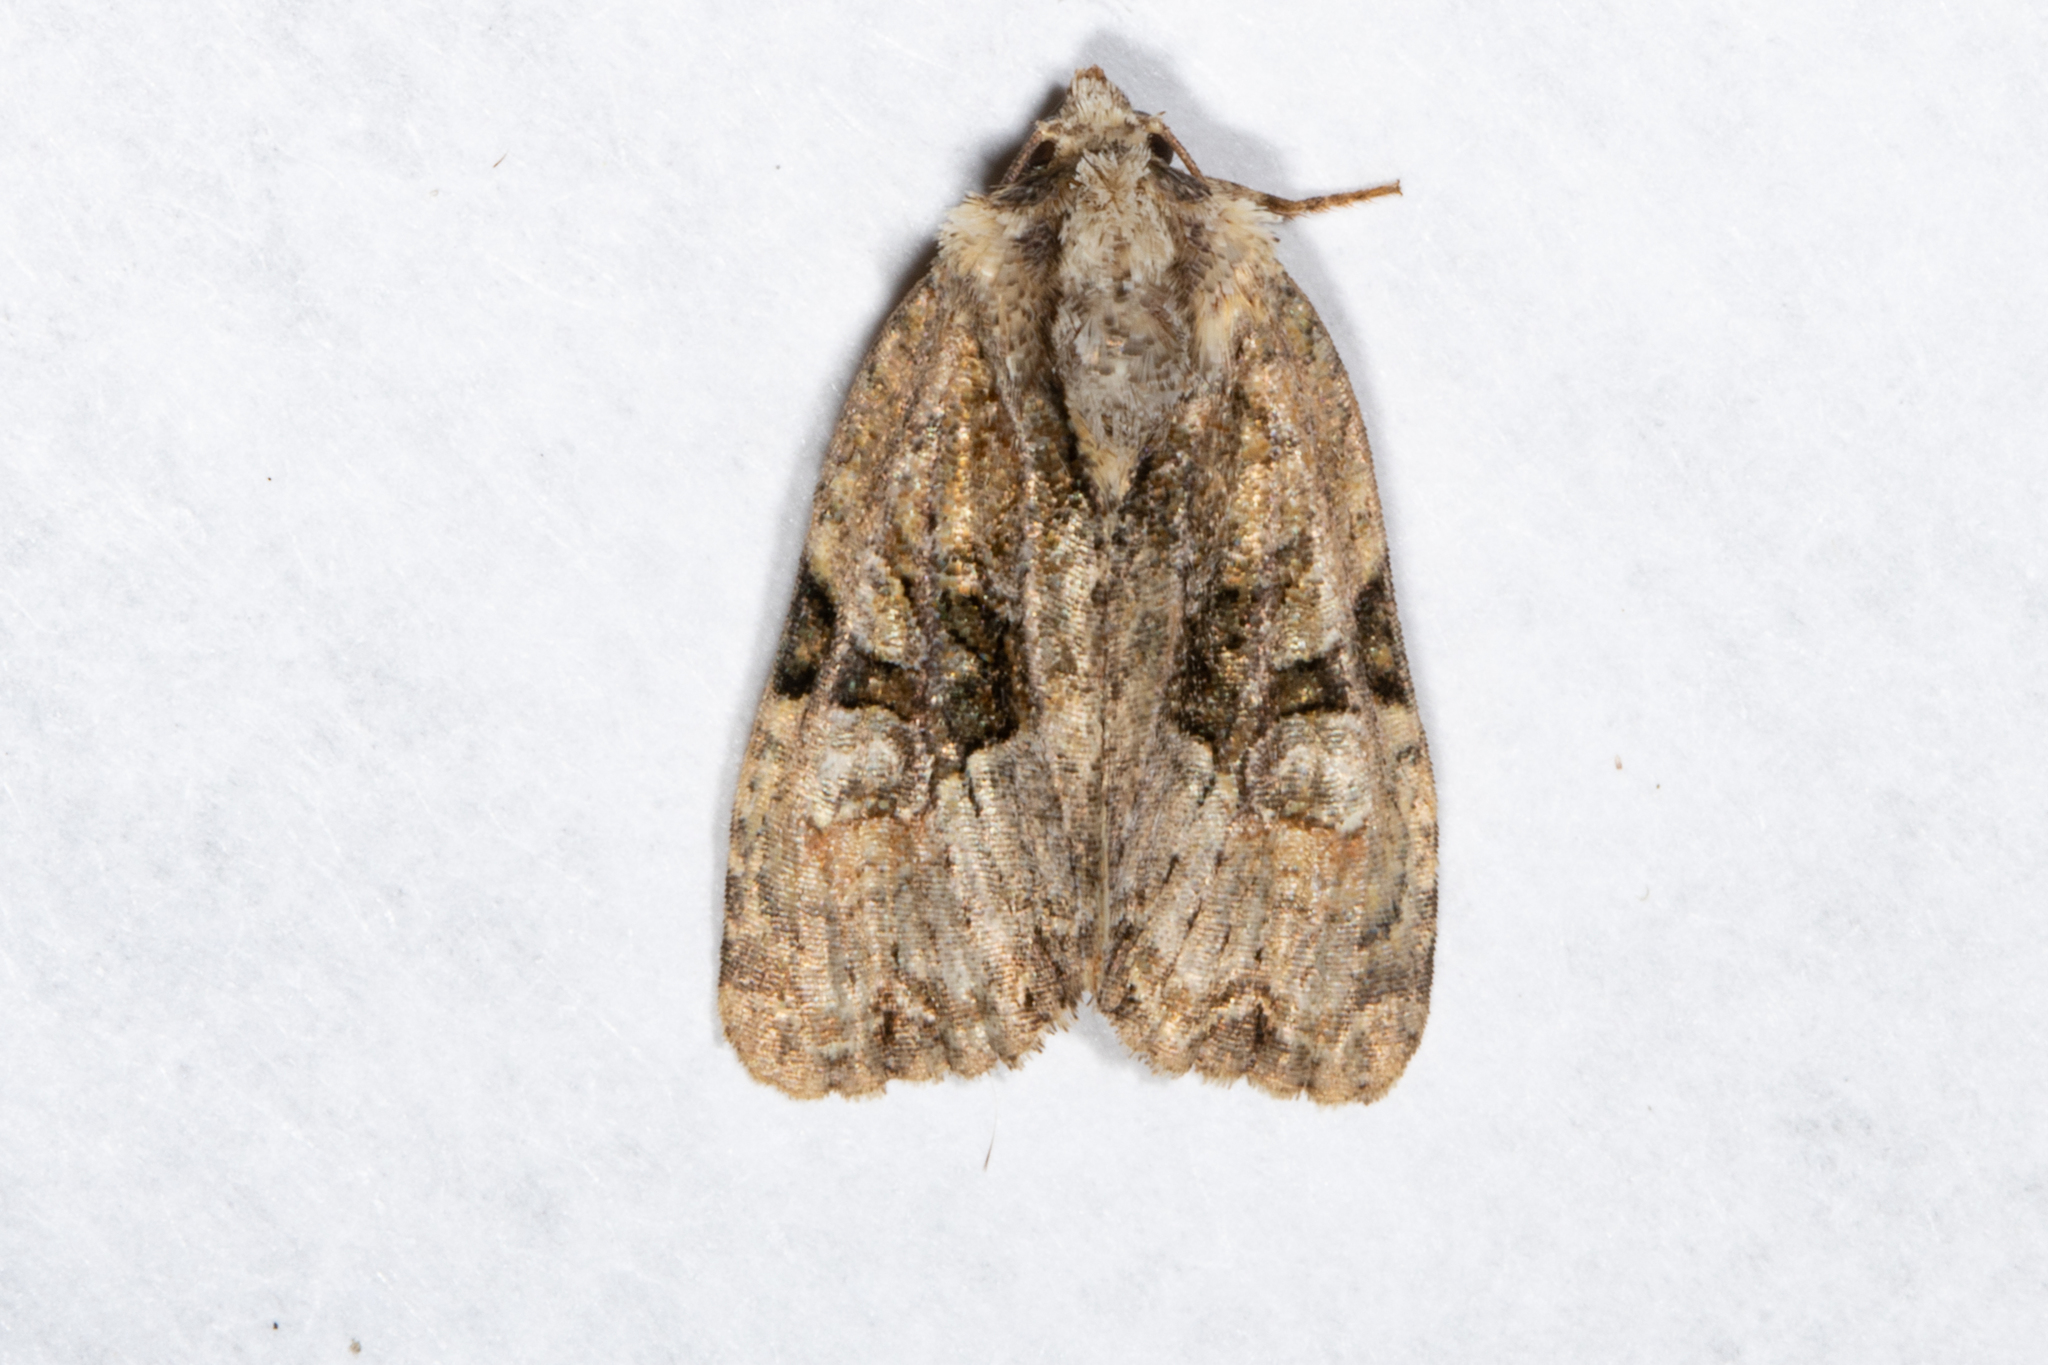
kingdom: Animalia
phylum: Arthropoda
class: Insecta
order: Lepidoptera
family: Noctuidae
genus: Oligia
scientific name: Oligia modica
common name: Black-banded brocade
